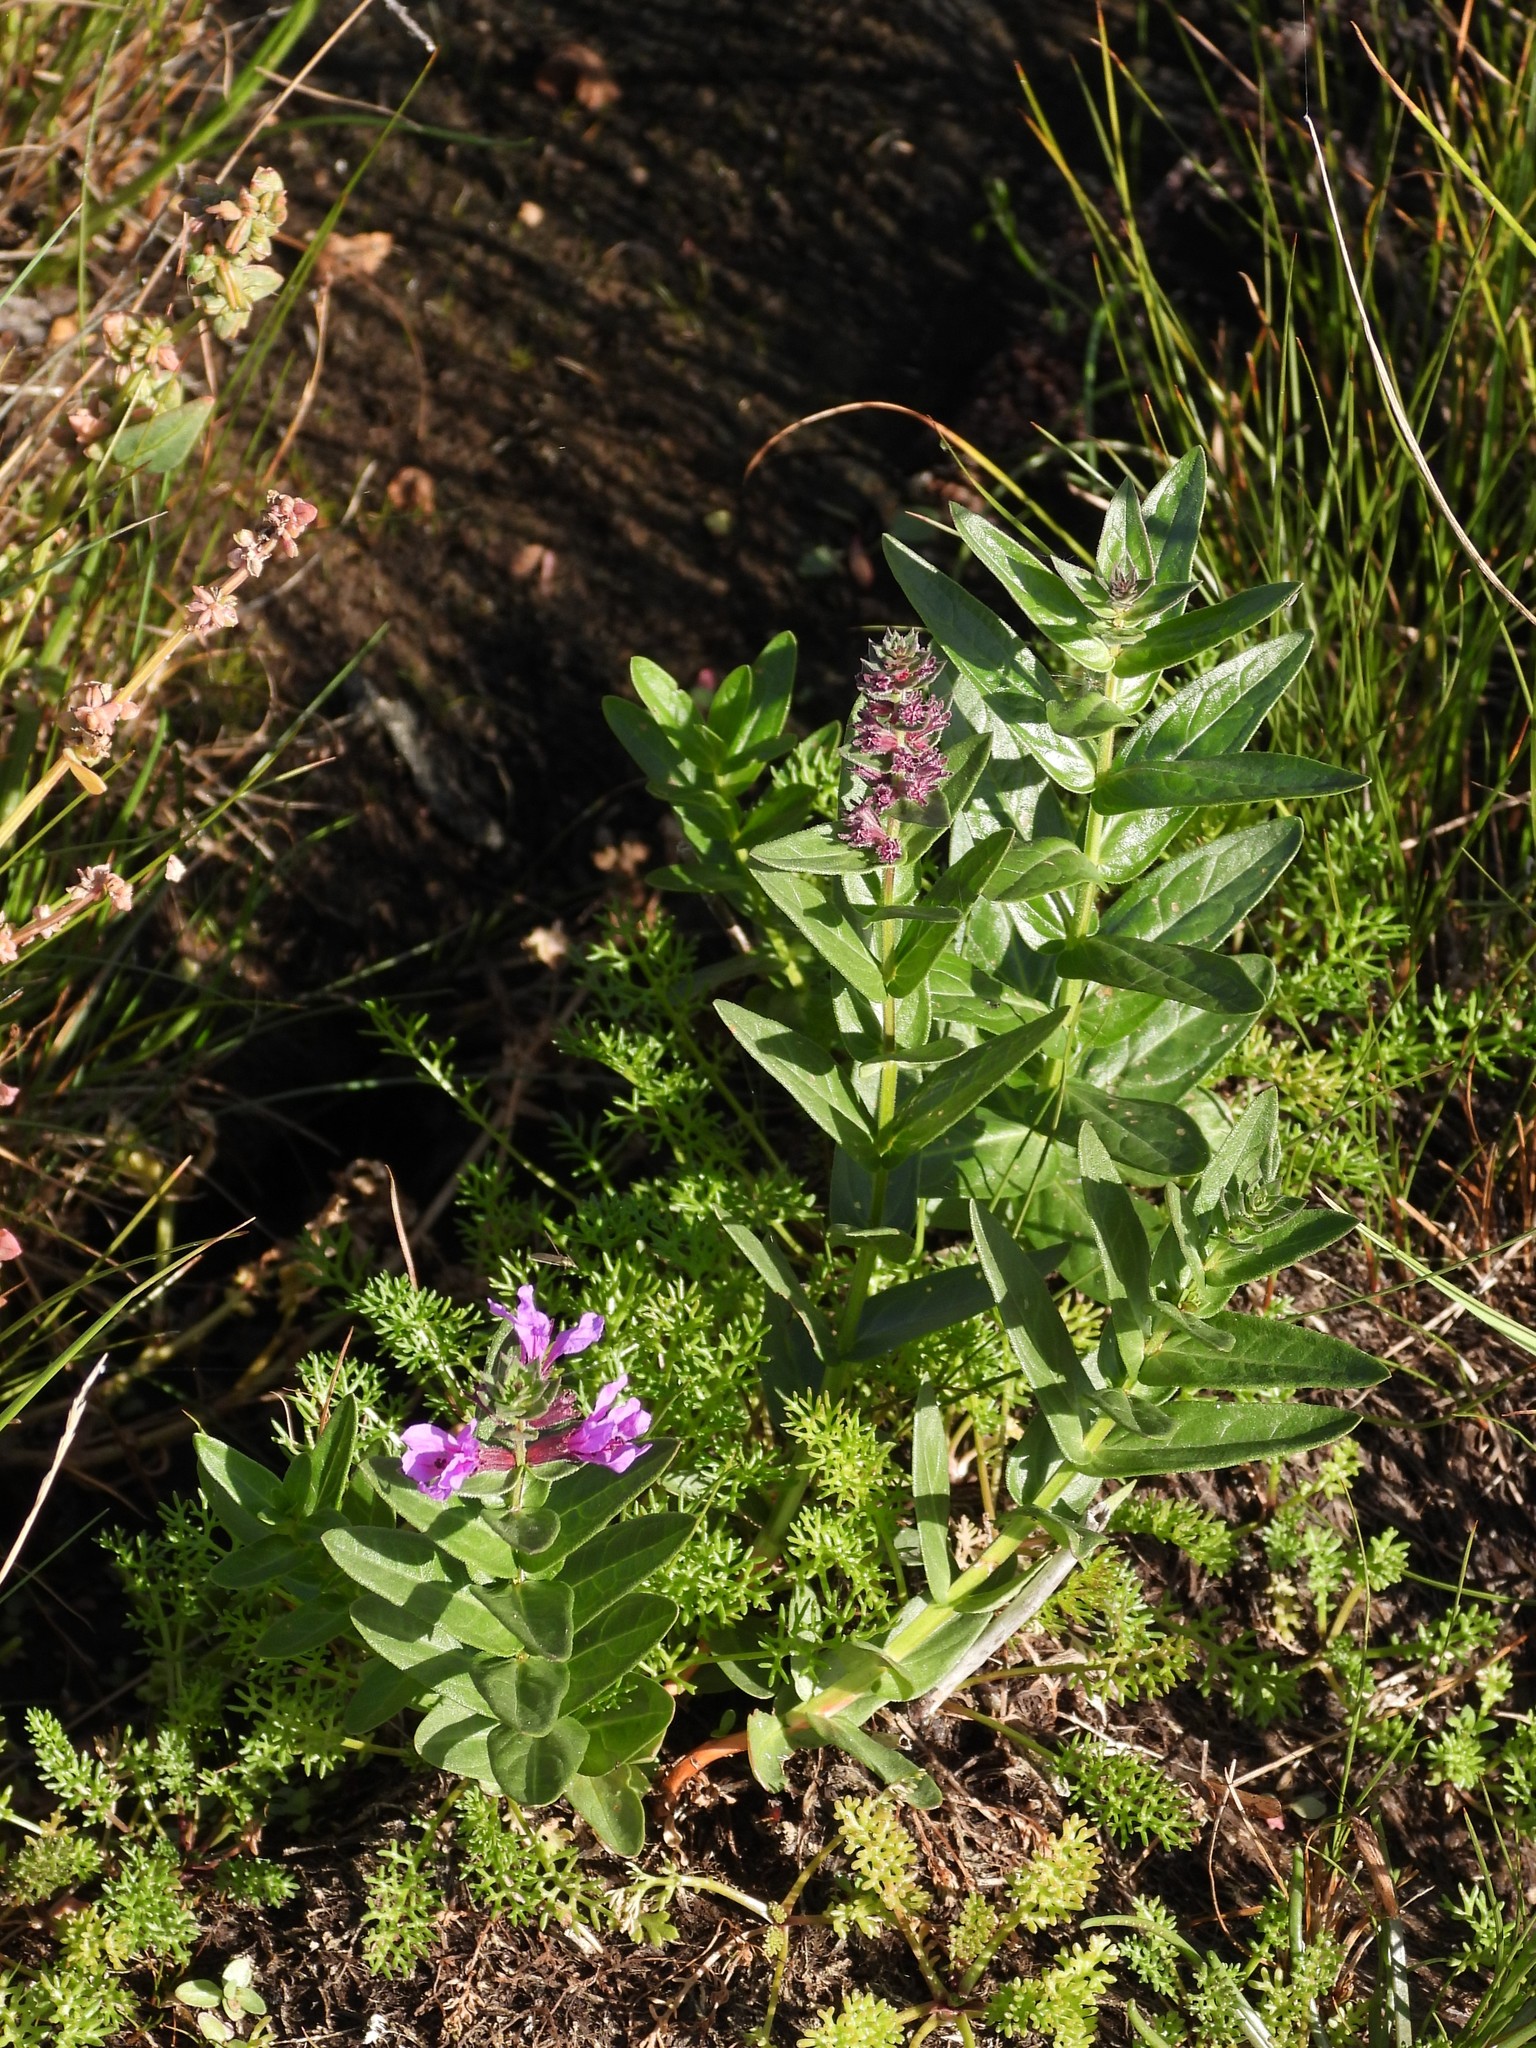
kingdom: Plantae
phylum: Tracheophyta
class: Magnoliopsida
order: Myrtales
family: Lythraceae
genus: Lythrum
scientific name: Lythrum salicaria
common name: Purple loosestrife
